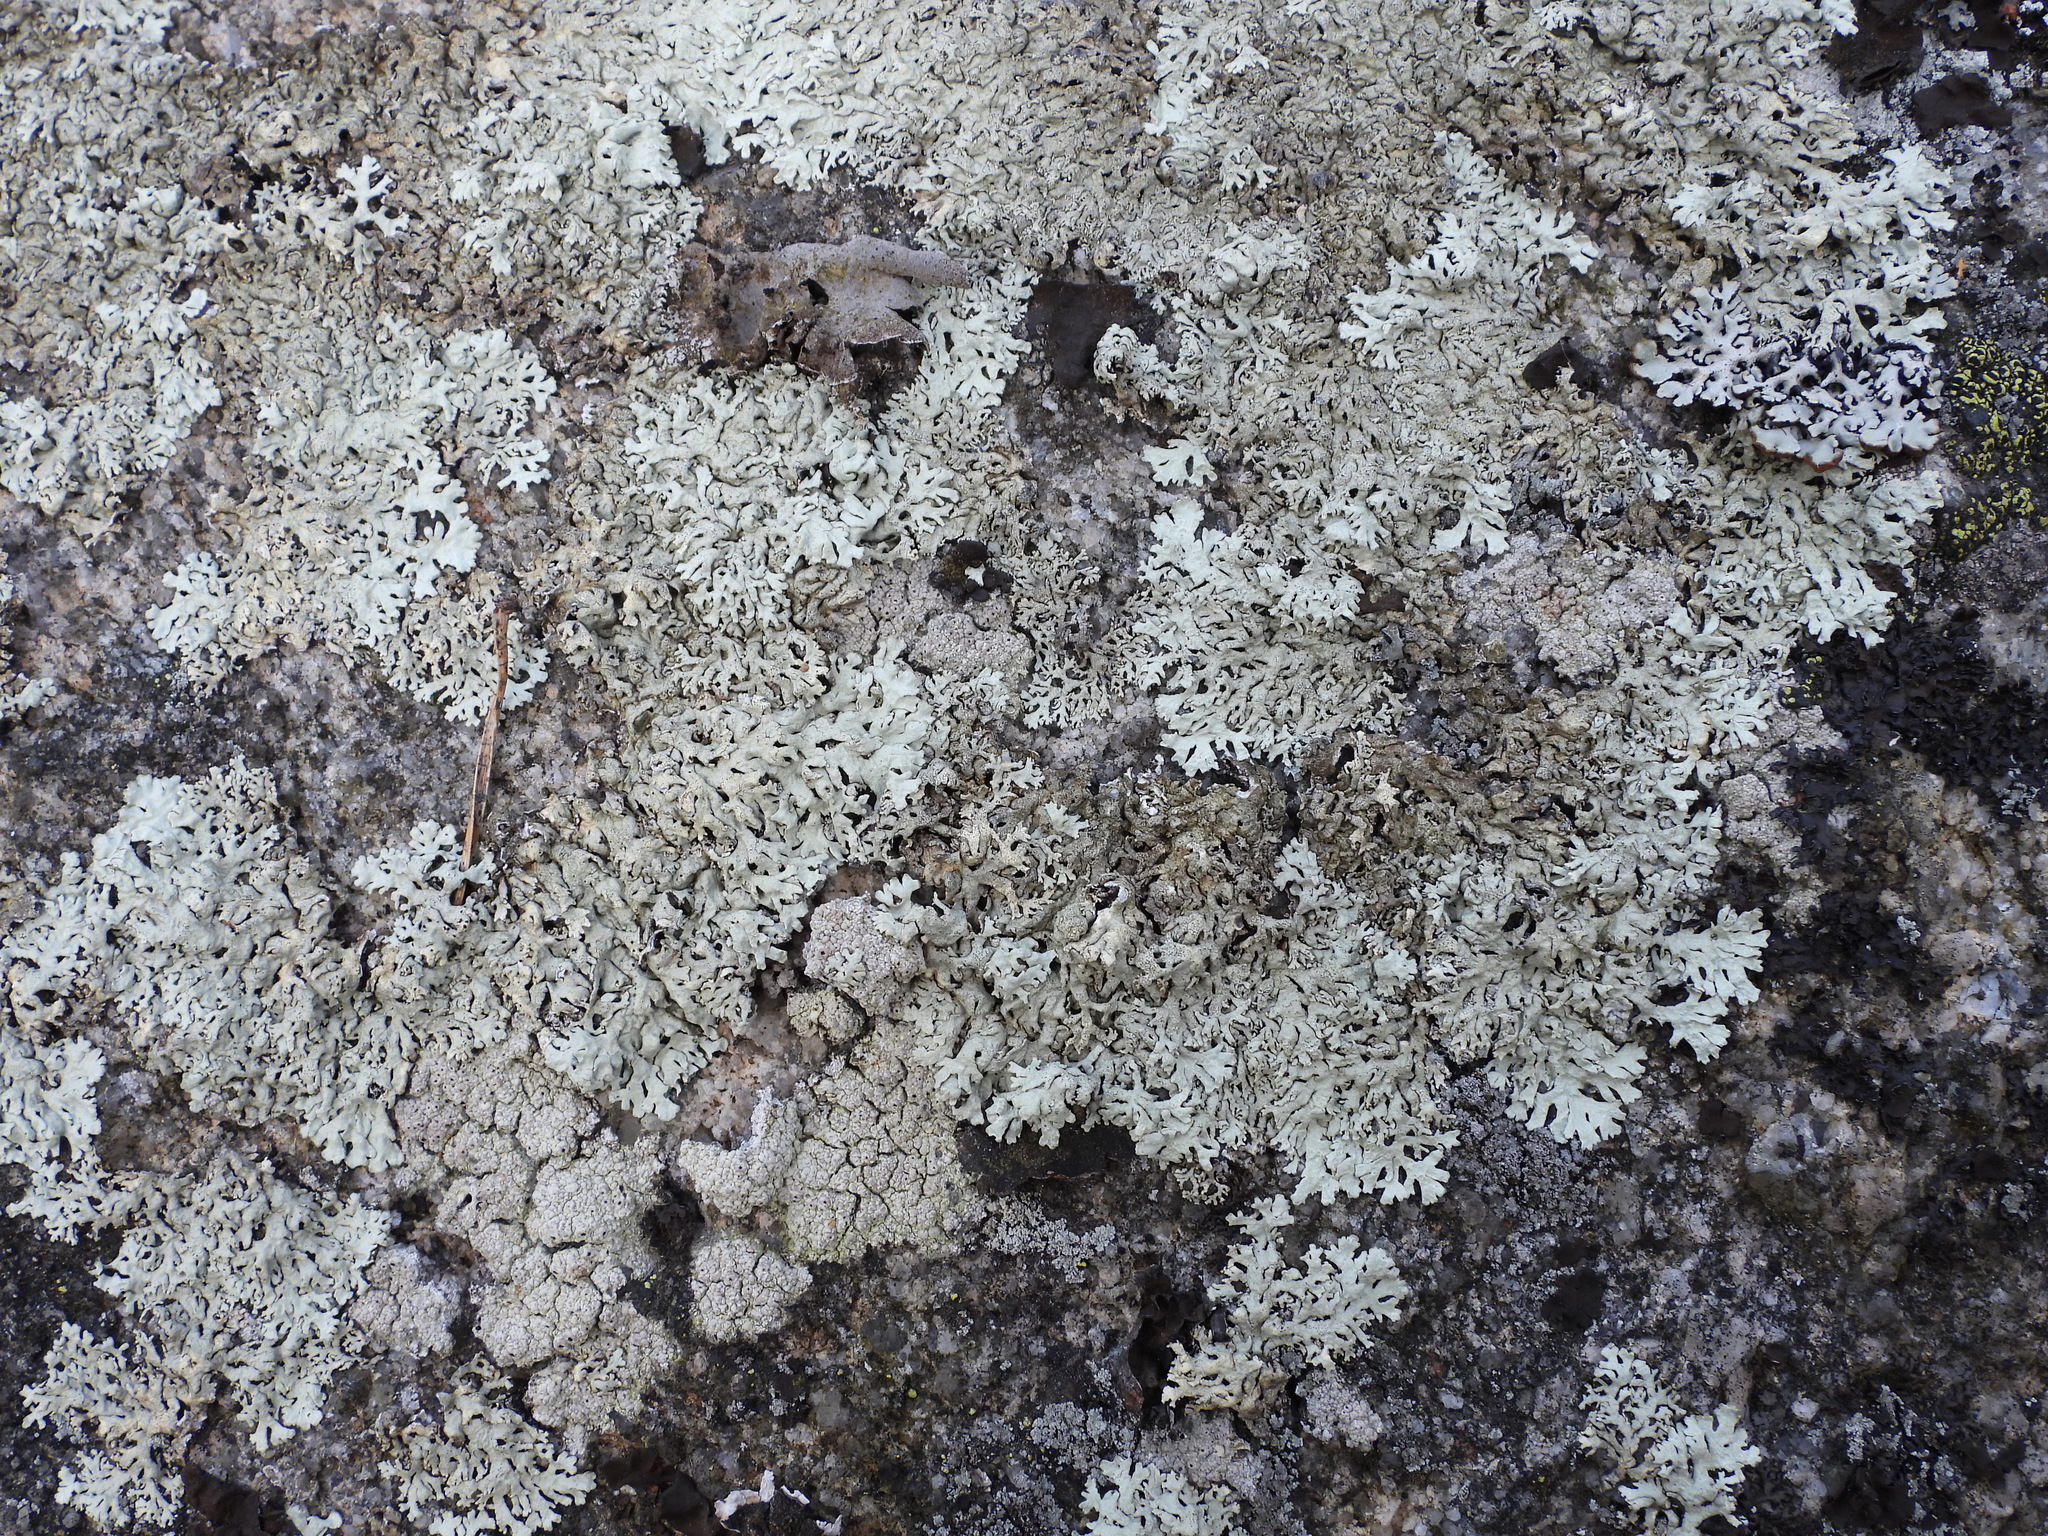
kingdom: Fungi
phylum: Ascomycota
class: Lecanoromycetes
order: Lecanorales
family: Parmeliaceae
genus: Arctoparmelia
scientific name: Arctoparmelia centrifuga
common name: Concentric ring lichen
